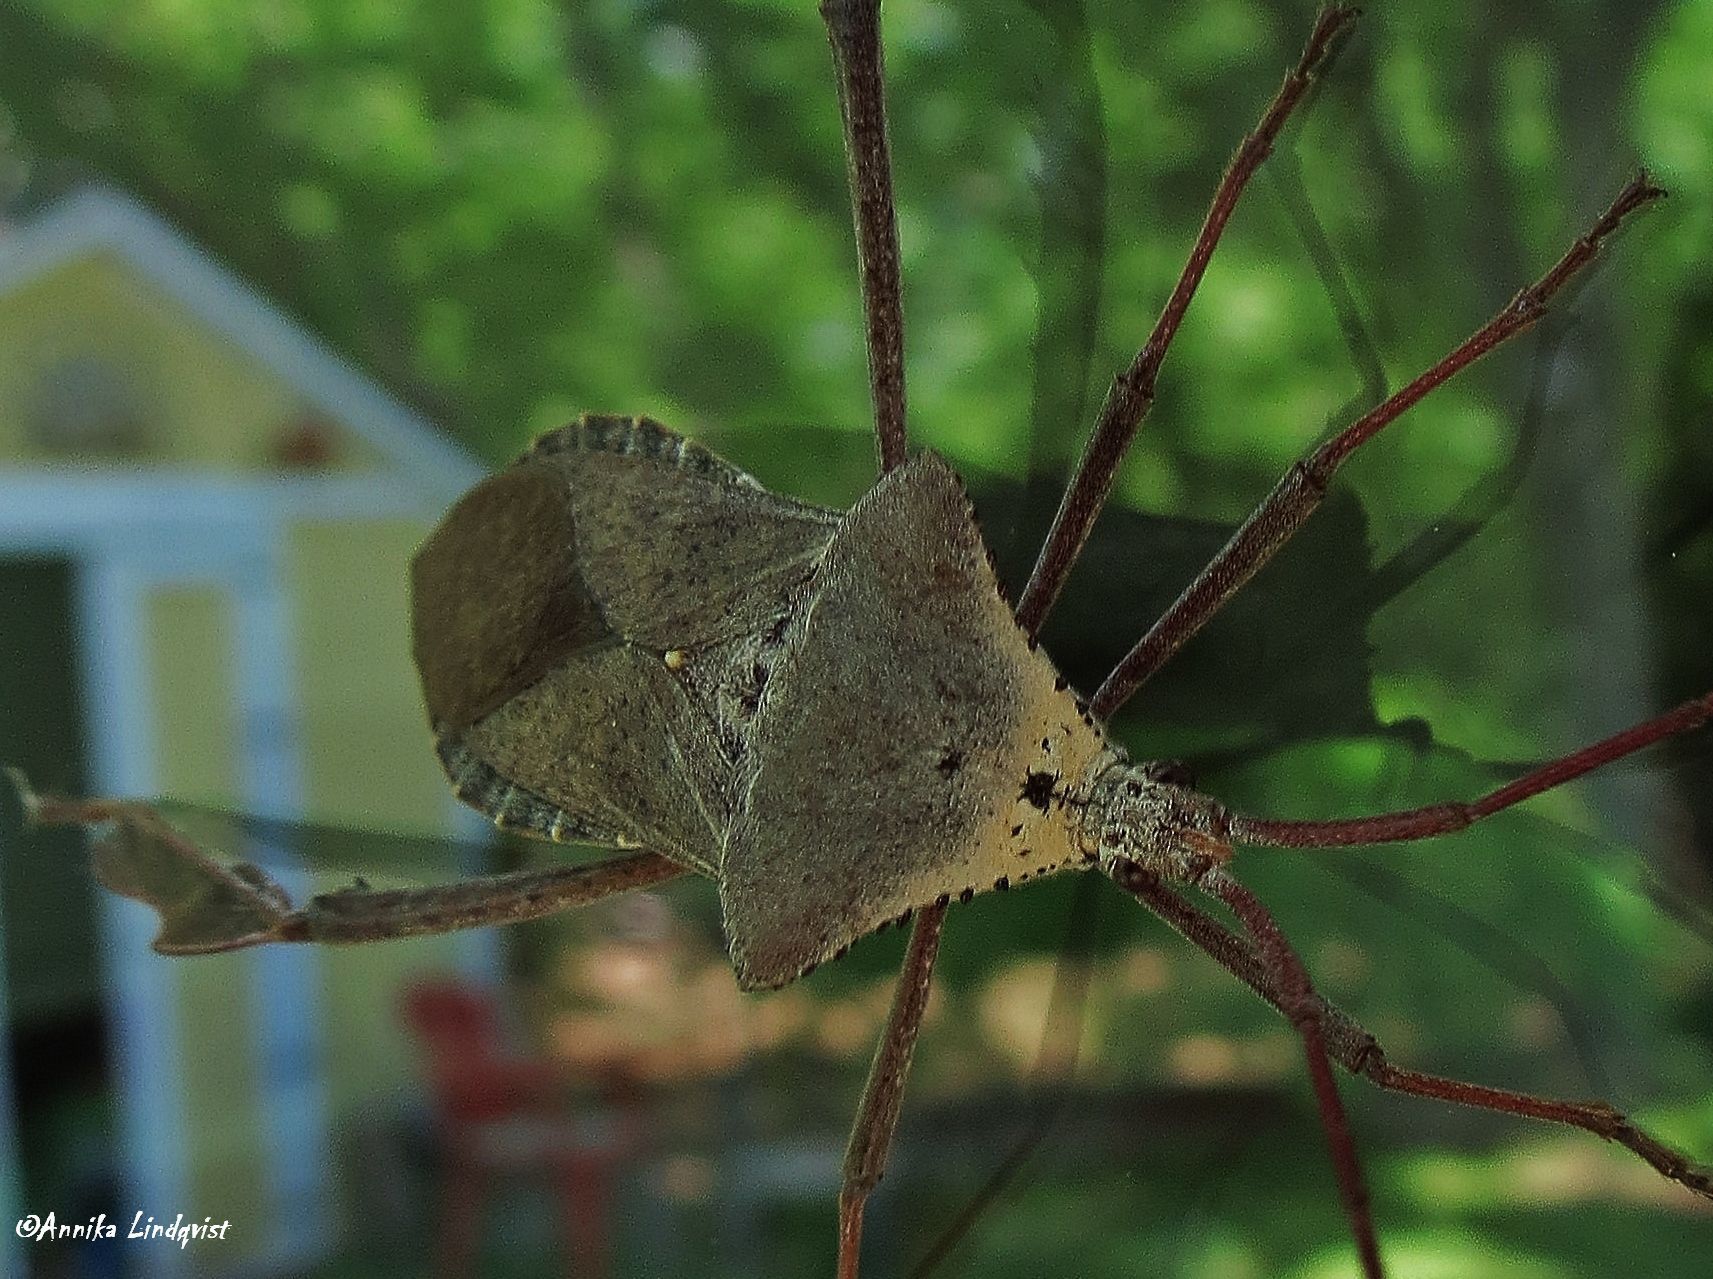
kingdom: Animalia
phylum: Arthropoda
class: Insecta
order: Hemiptera
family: Coreidae
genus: Acanthocephala
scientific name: Acanthocephala declivis
